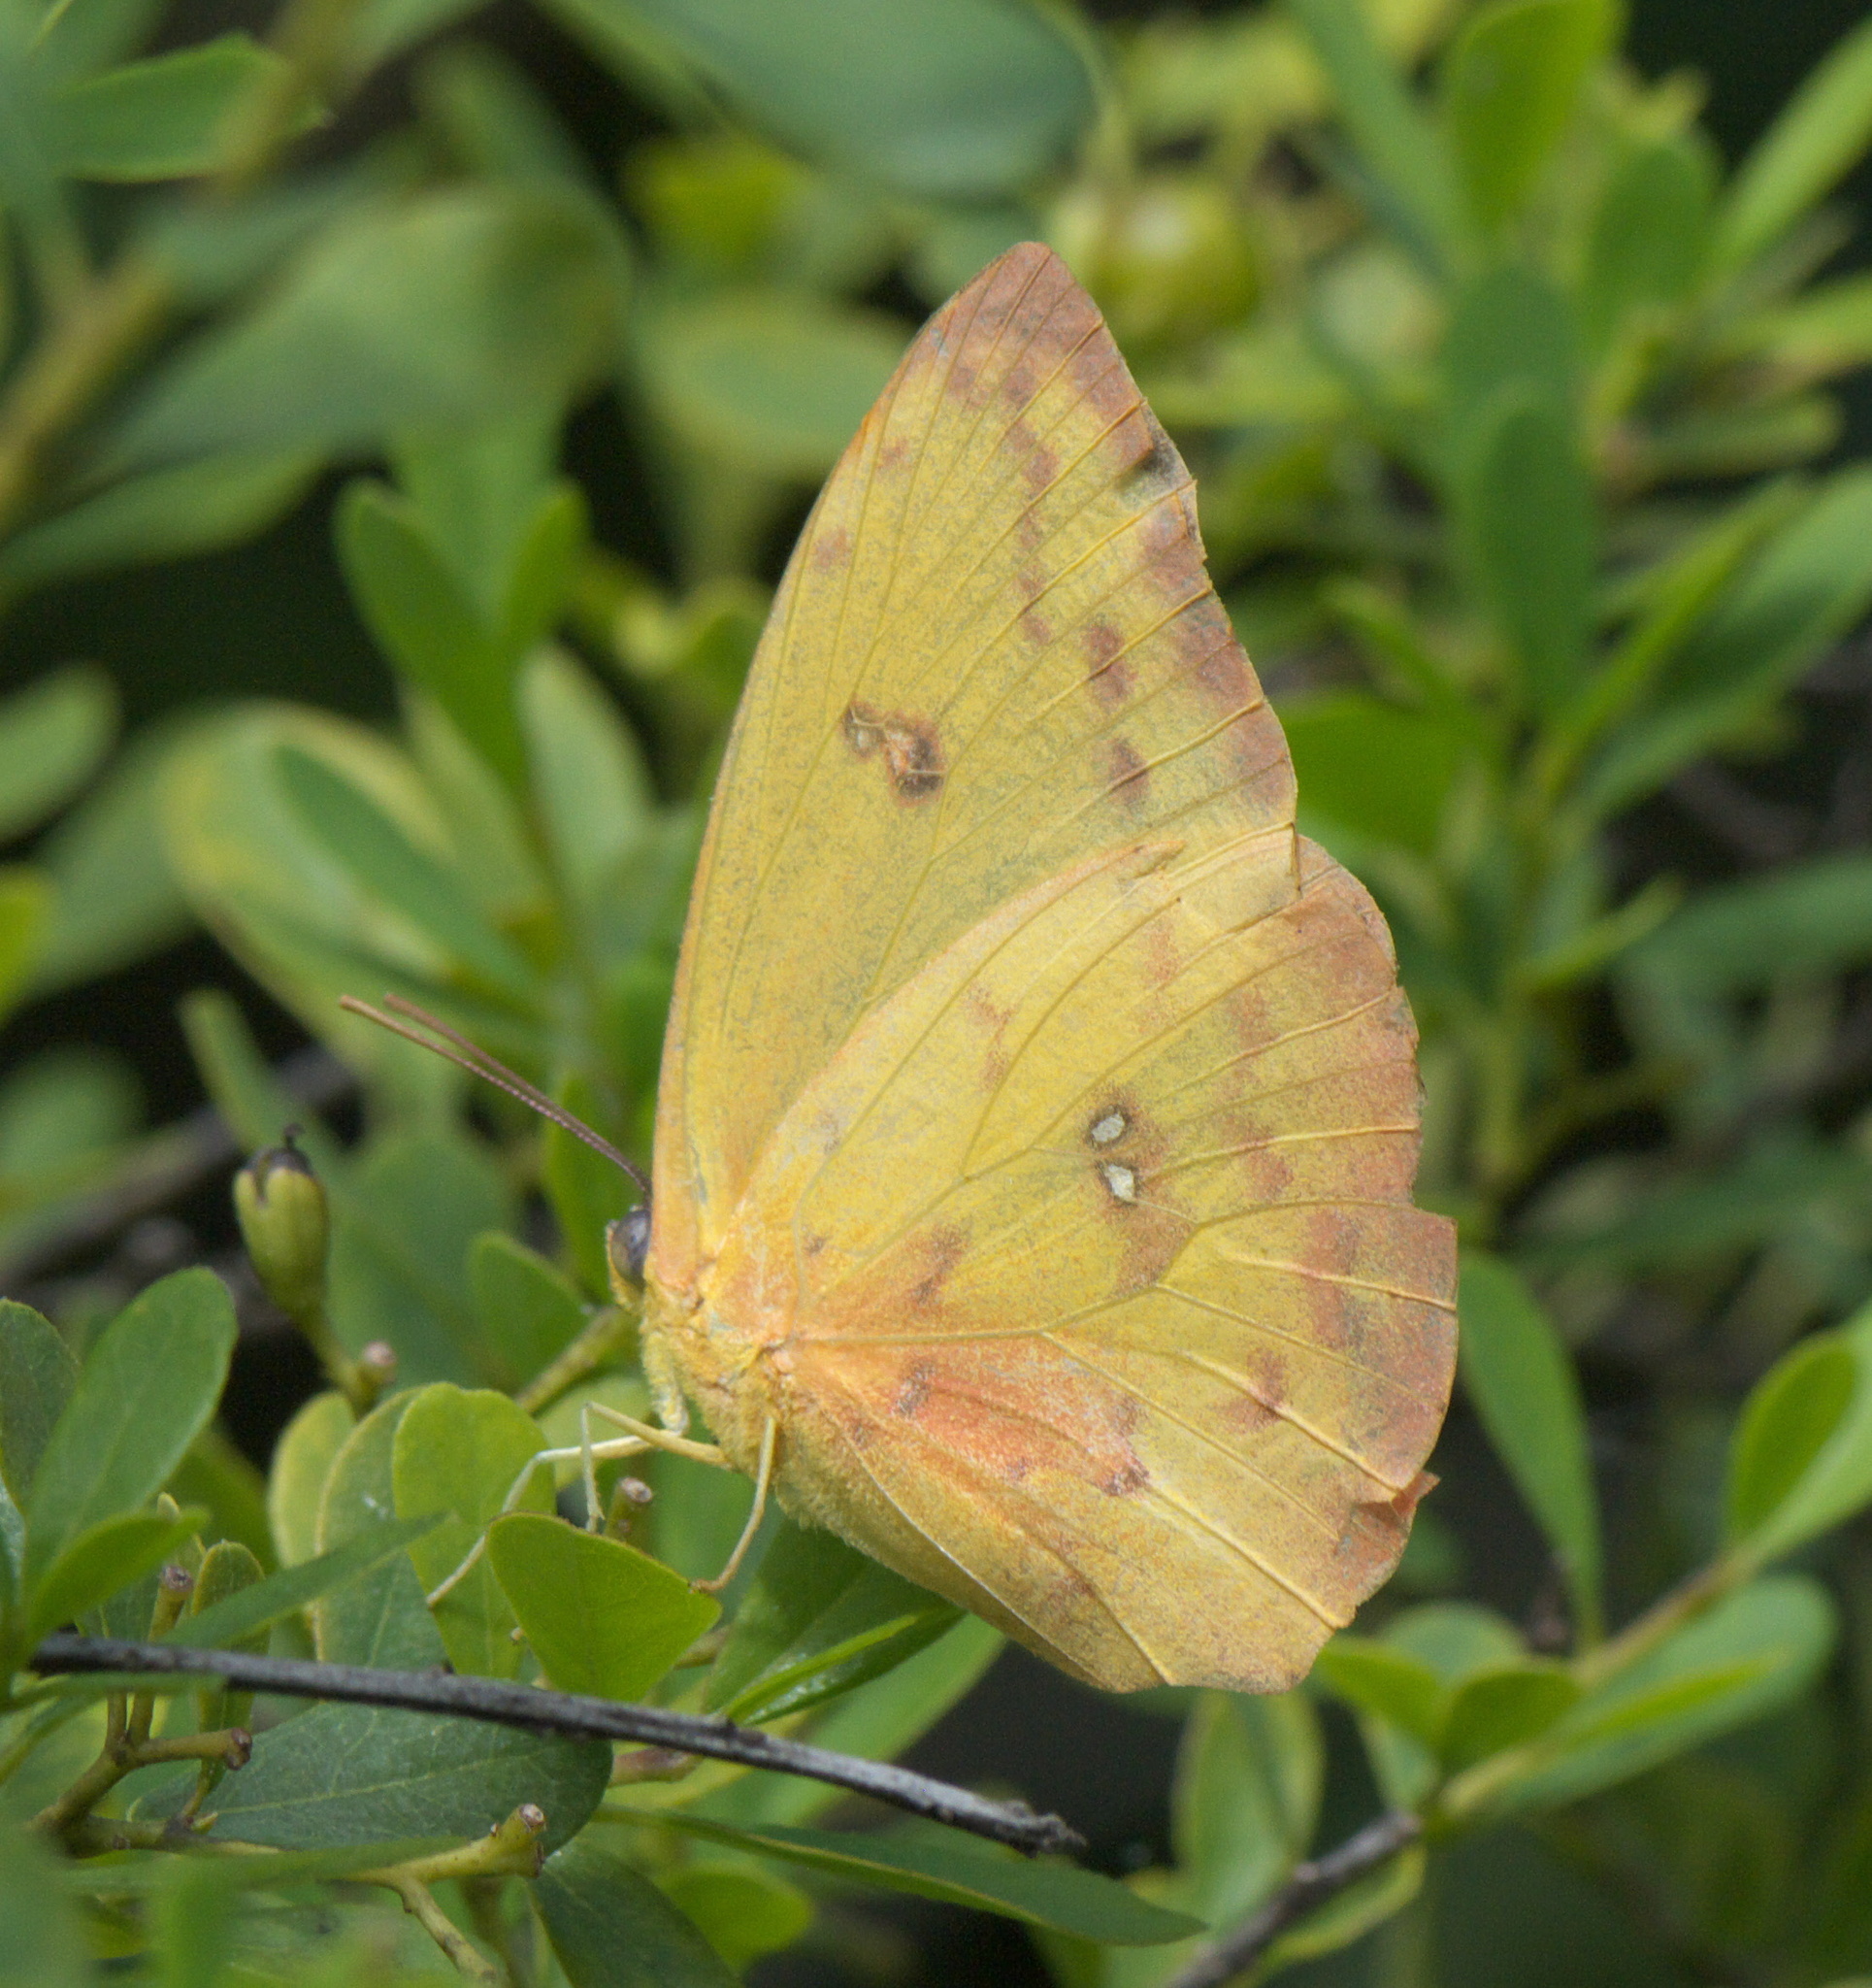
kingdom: Animalia
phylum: Arthropoda
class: Insecta
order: Lepidoptera
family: Pieridae
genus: Phoebis
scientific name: Phoebis philea
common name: Orange-barred giant sulphur
